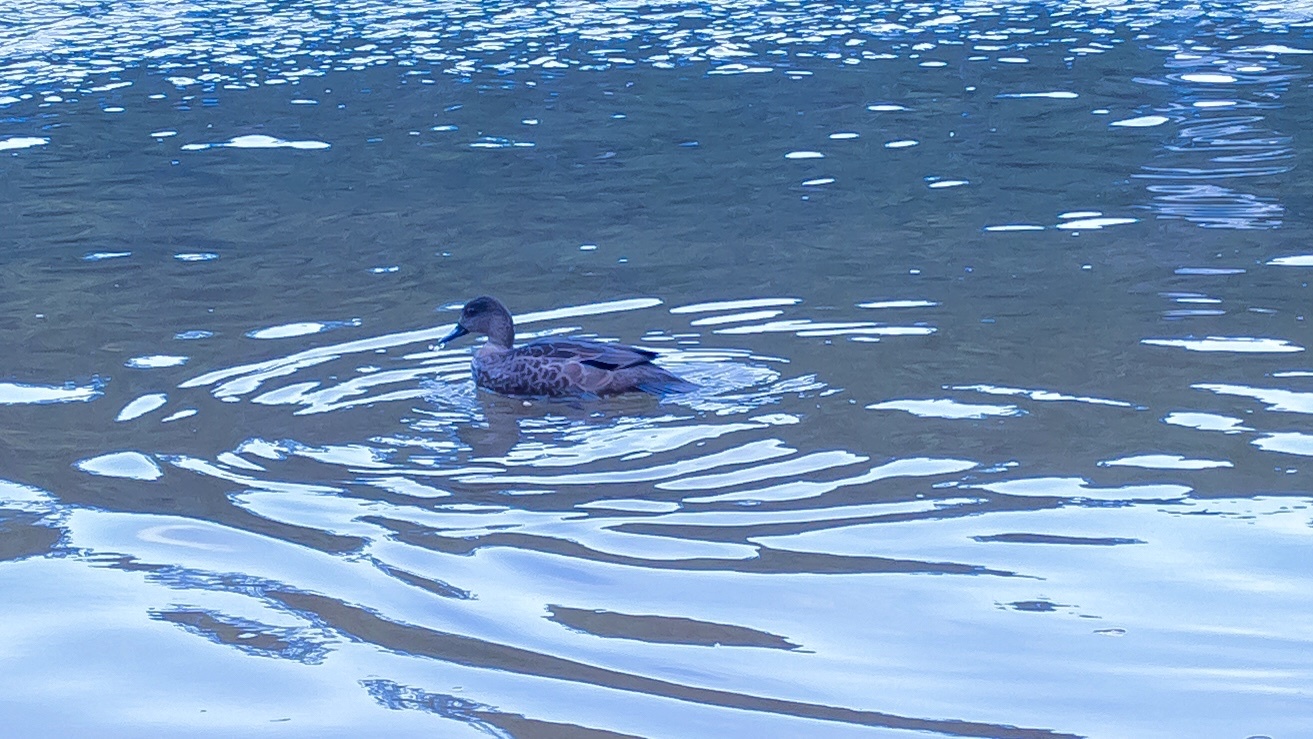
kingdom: Animalia
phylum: Chordata
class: Aves
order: Anseriformes
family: Anatidae
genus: Anas
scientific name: Anas castanea
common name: Chestnut teal
